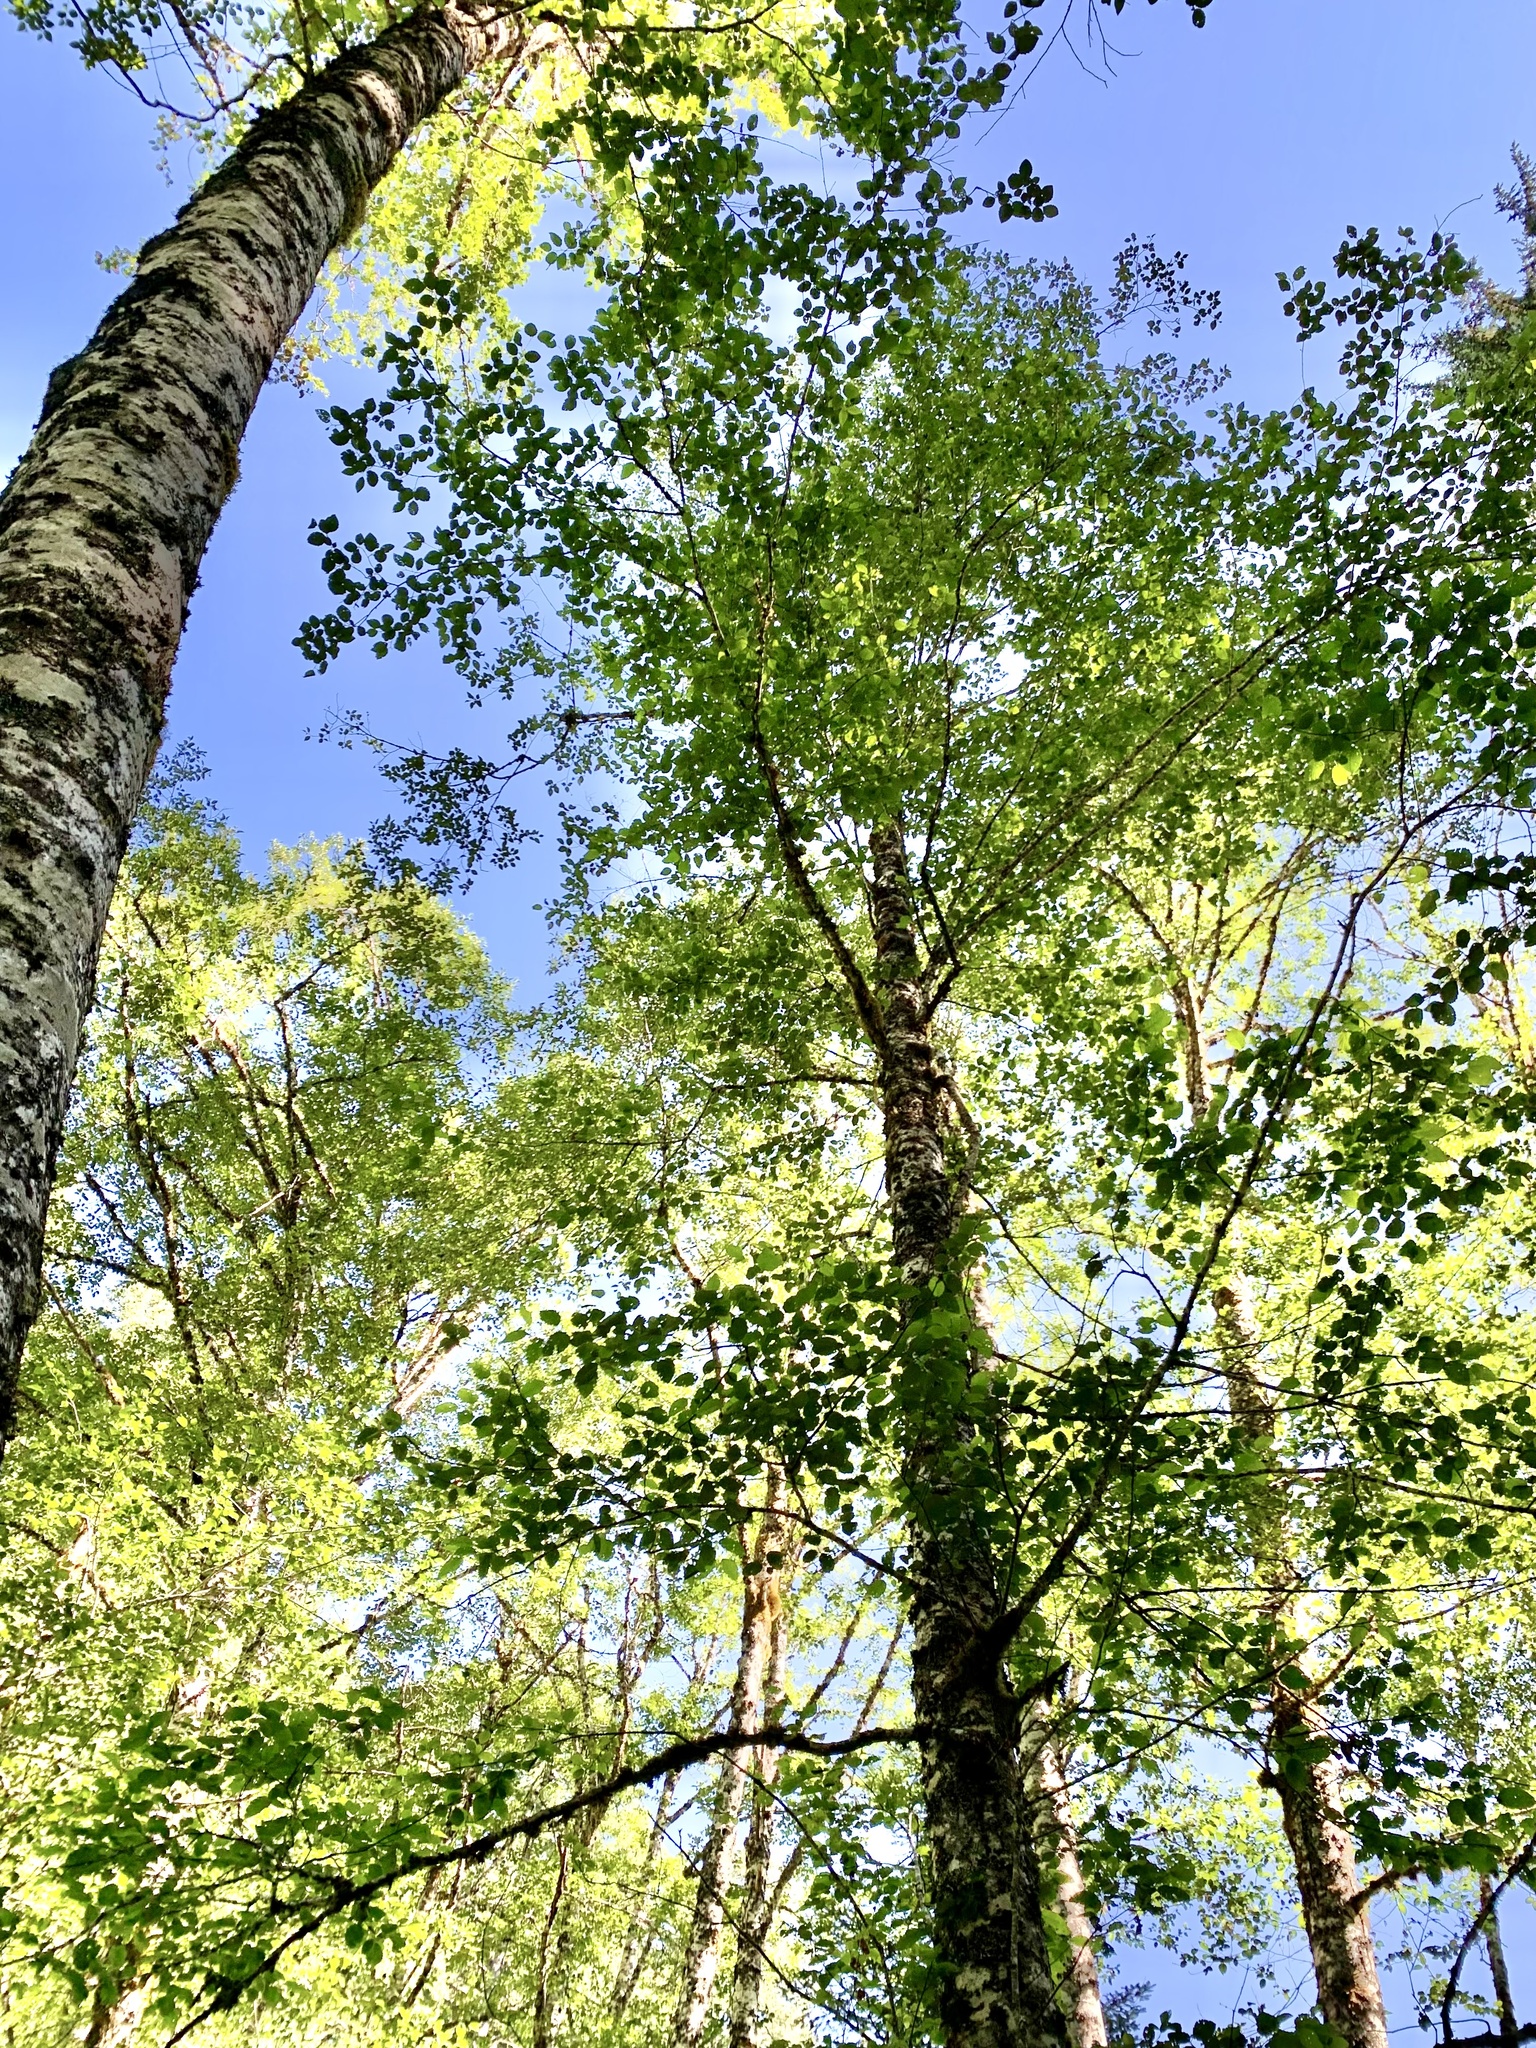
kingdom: Plantae
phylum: Tracheophyta
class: Magnoliopsida
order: Fagales
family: Betulaceae
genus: Alnus
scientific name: Alnus rubra
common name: Red alder
